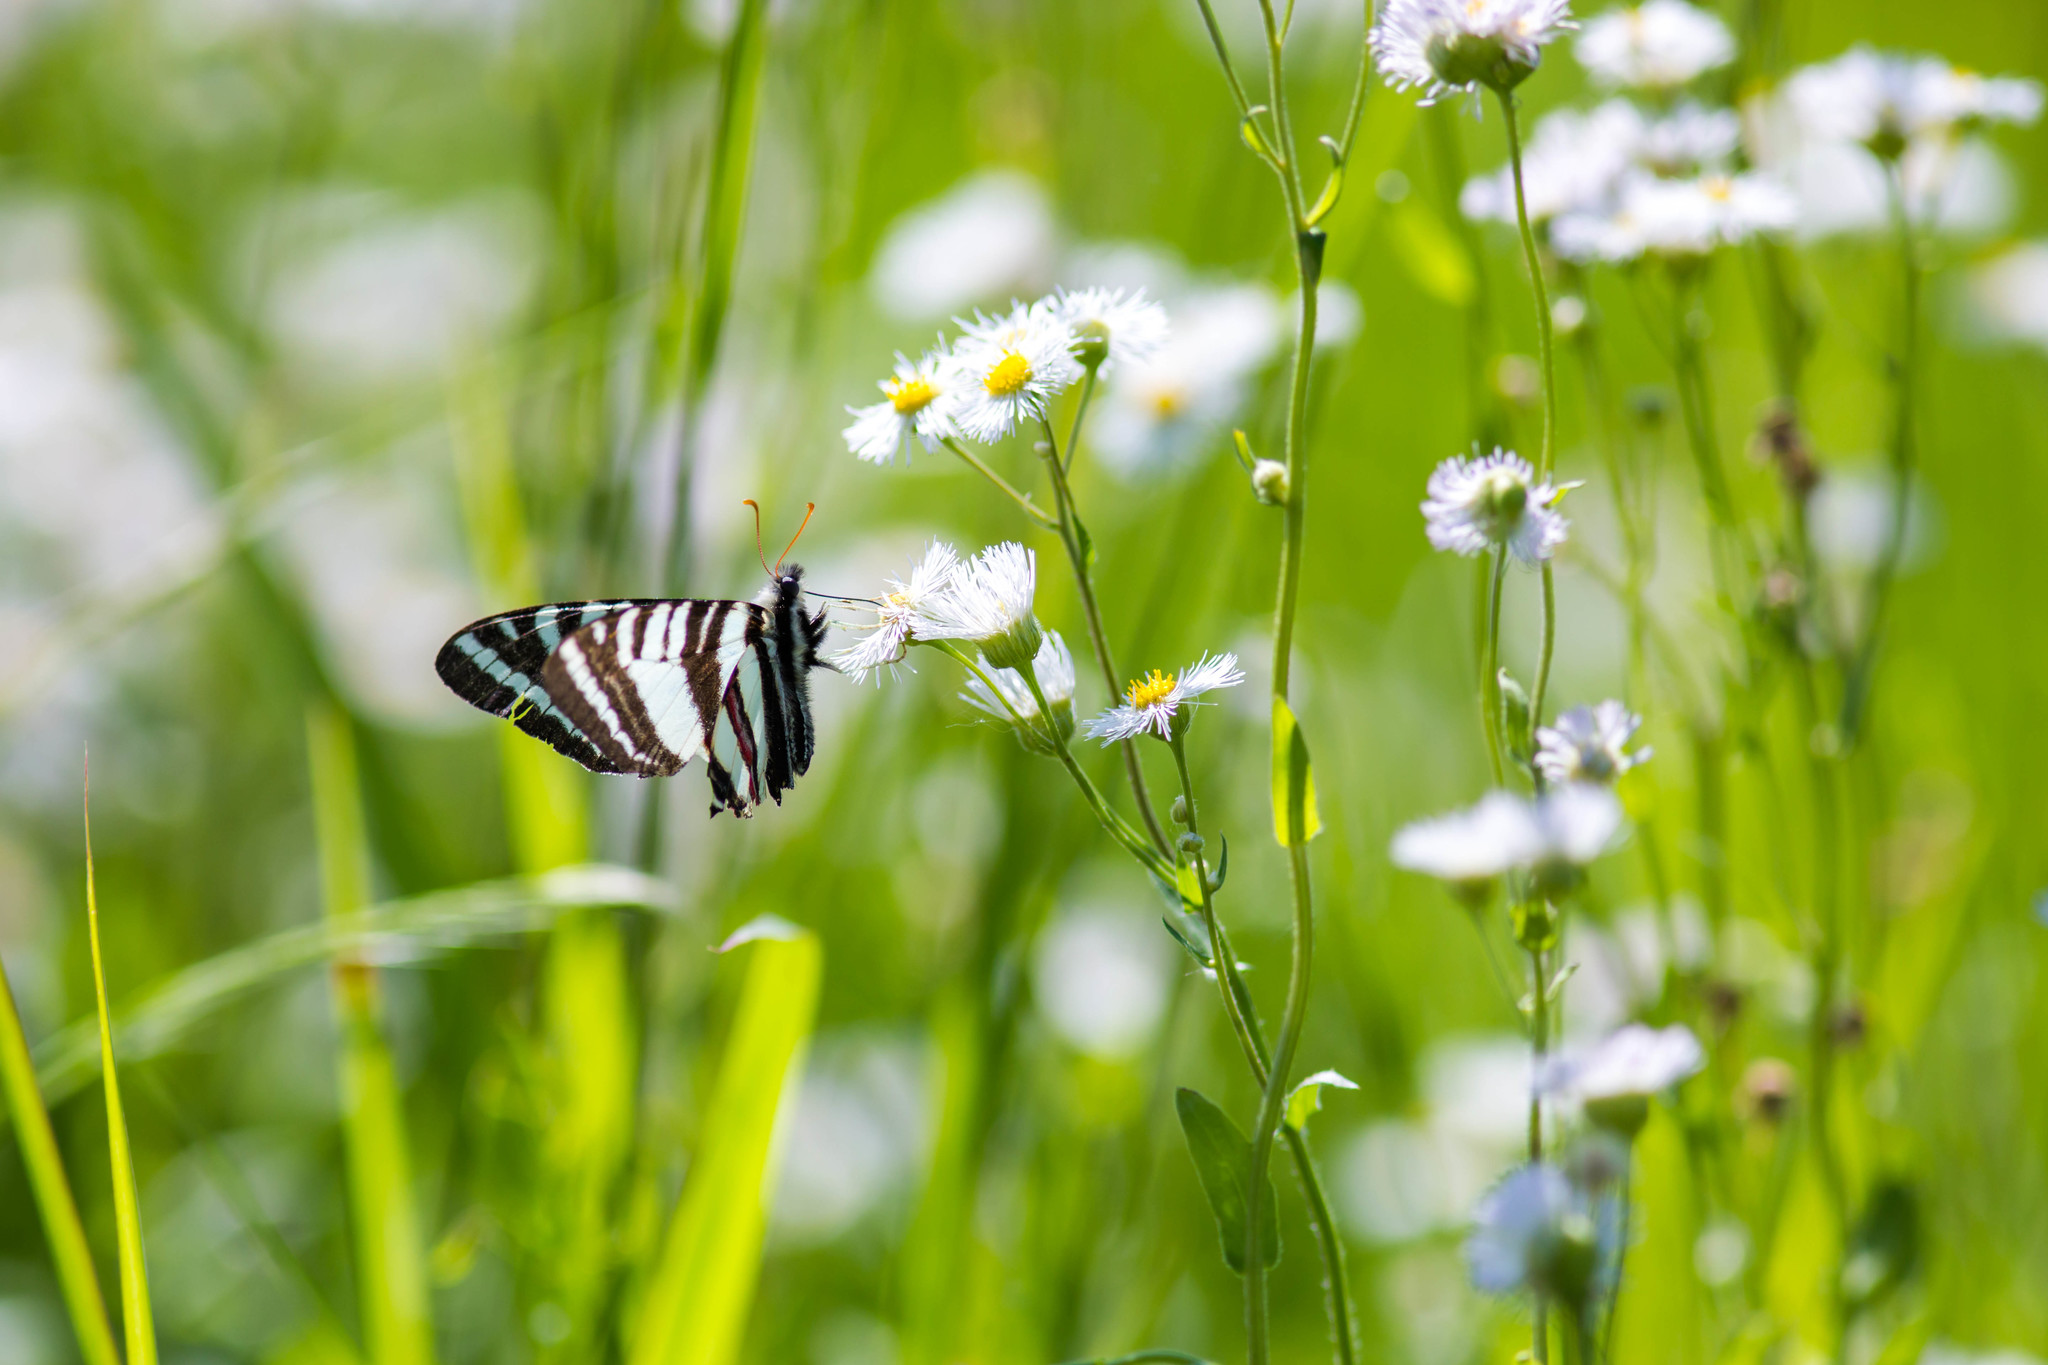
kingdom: Animalia
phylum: Arthropoda
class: Insecta
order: Lepidoptera
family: Papilionidae
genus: Protographium
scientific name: Protographium marcellus
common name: Zebra swallowtail
